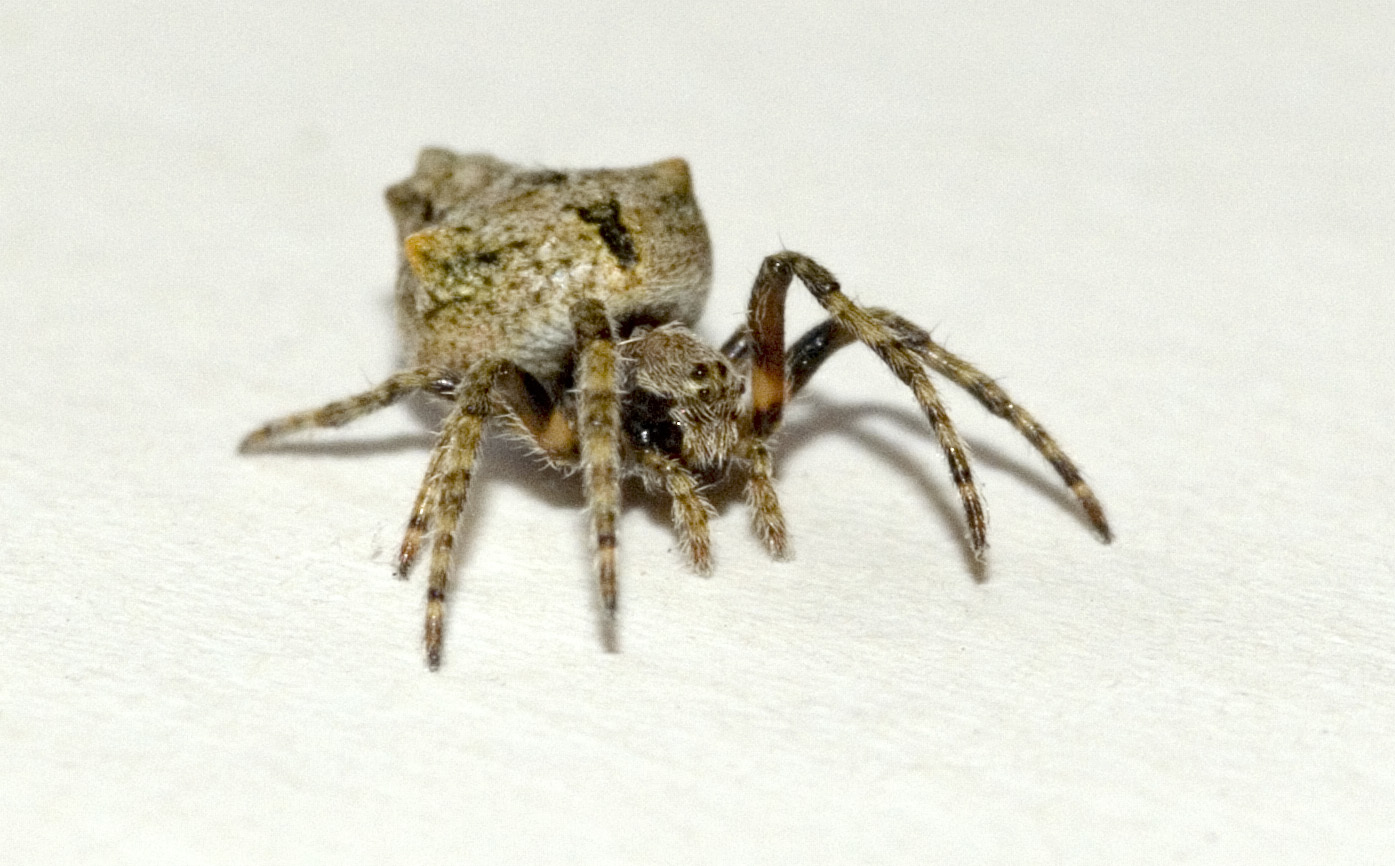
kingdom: Animalia
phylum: Arthropoda
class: Arachnida
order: Araneae
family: Araneidae
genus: Eriophora
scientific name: Eriophora pustulosa
